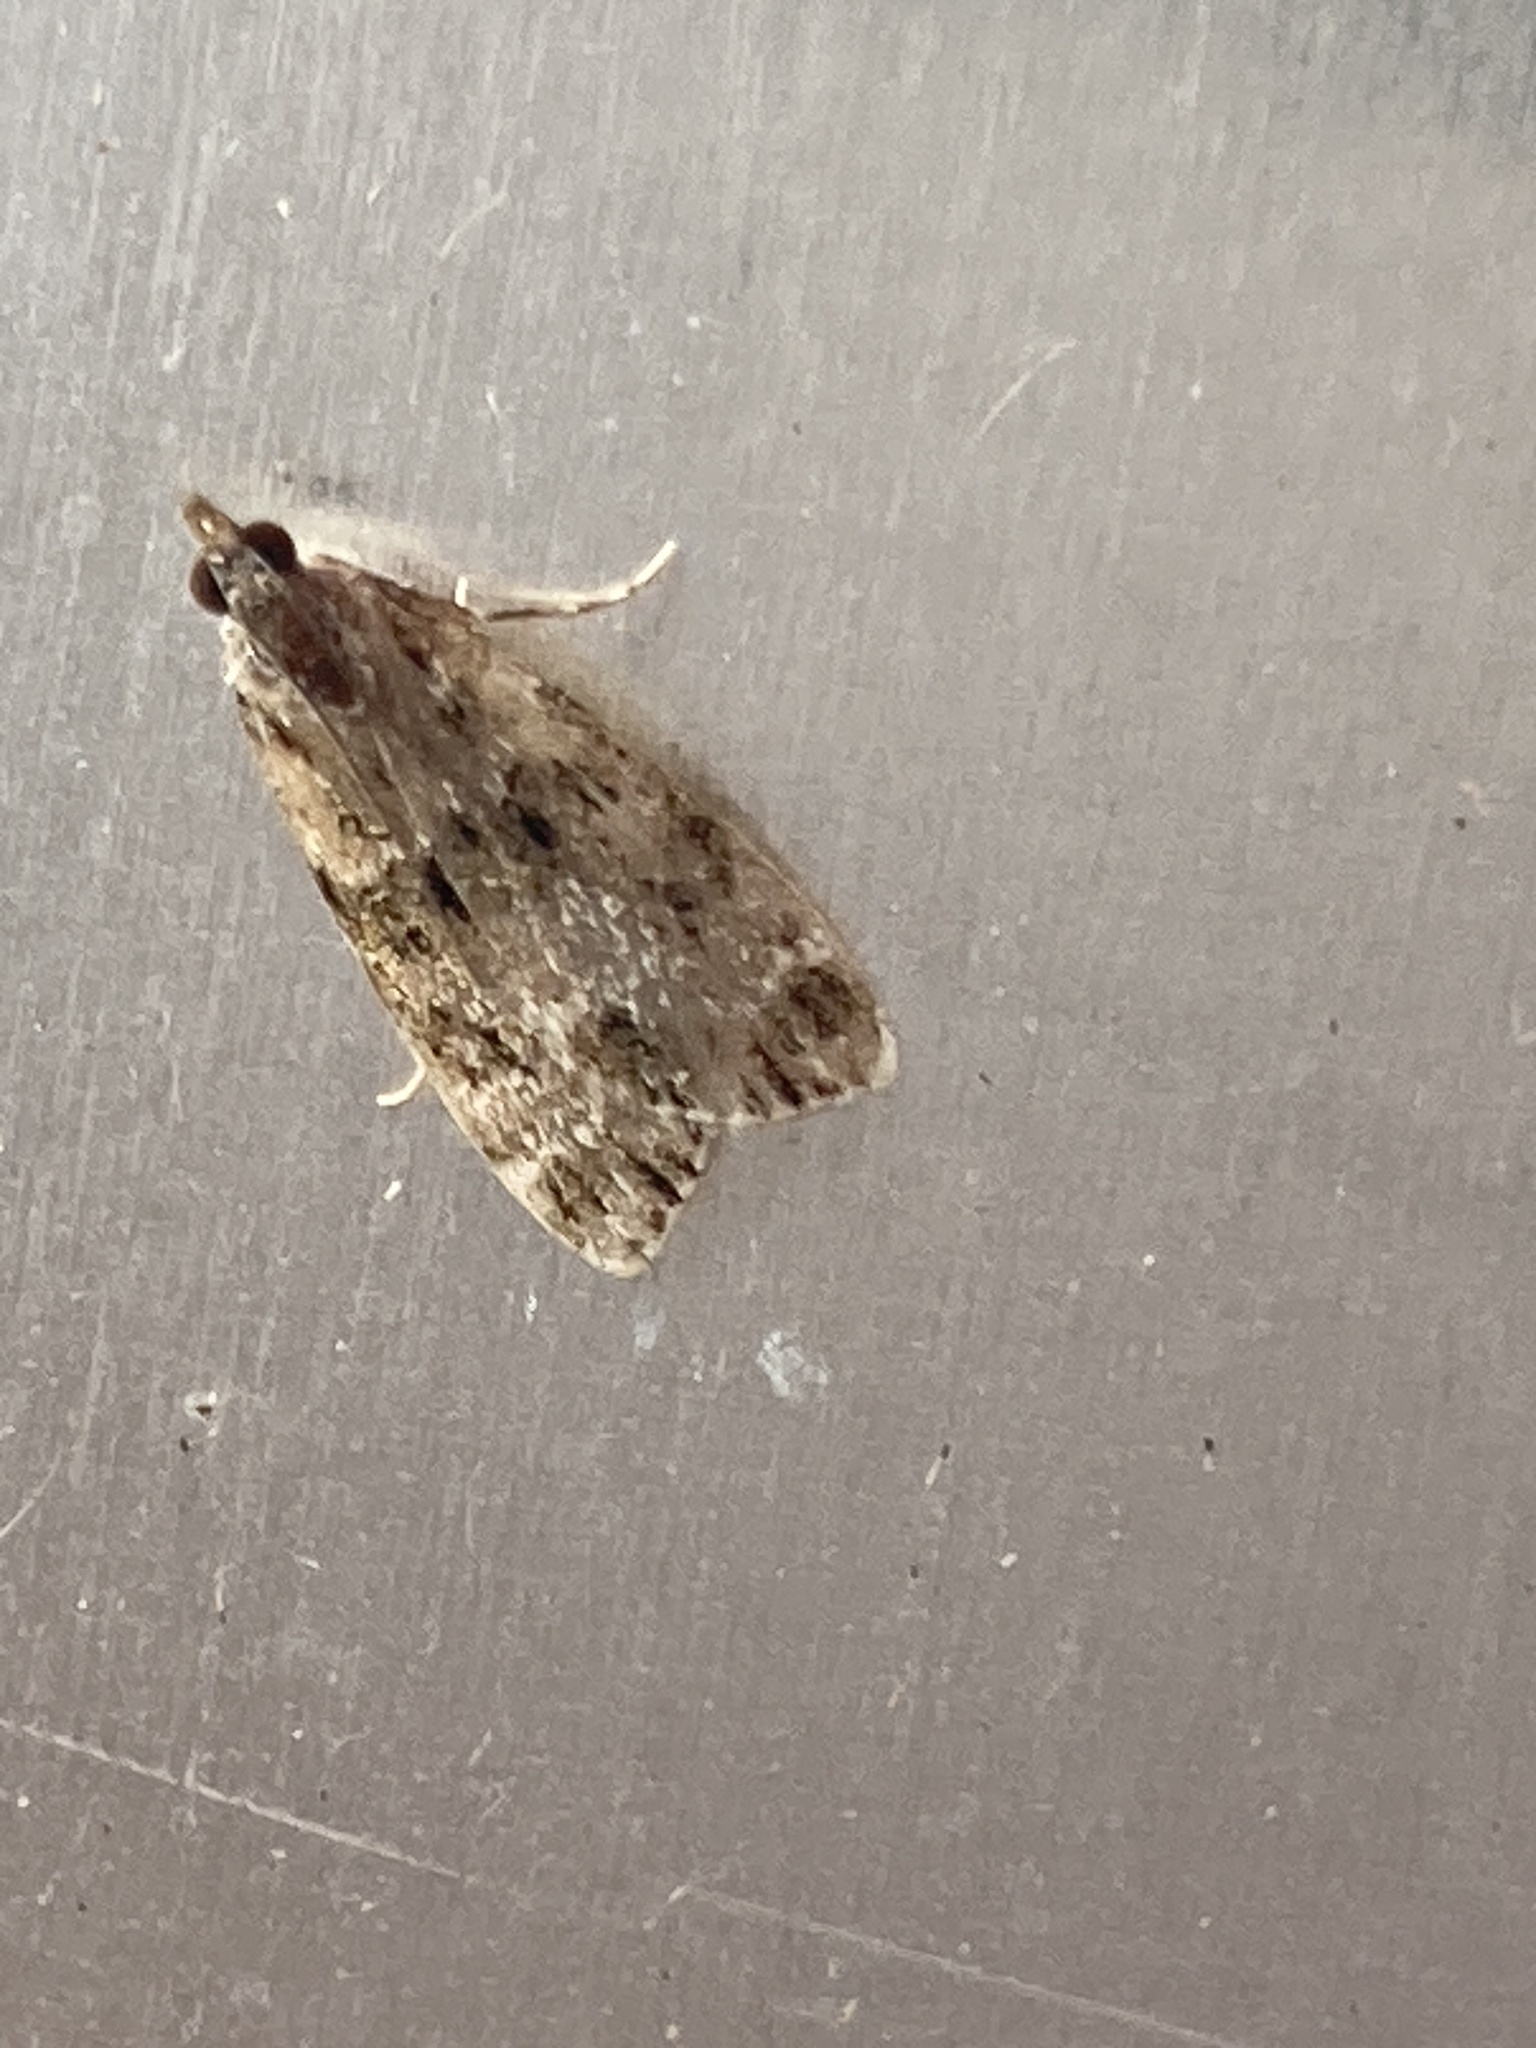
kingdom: Animalia
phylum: Arthropoda
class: Insecta
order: Lepidoptera
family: Crambidae
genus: Eudonia
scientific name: Eudonia mercurella
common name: Small grey
